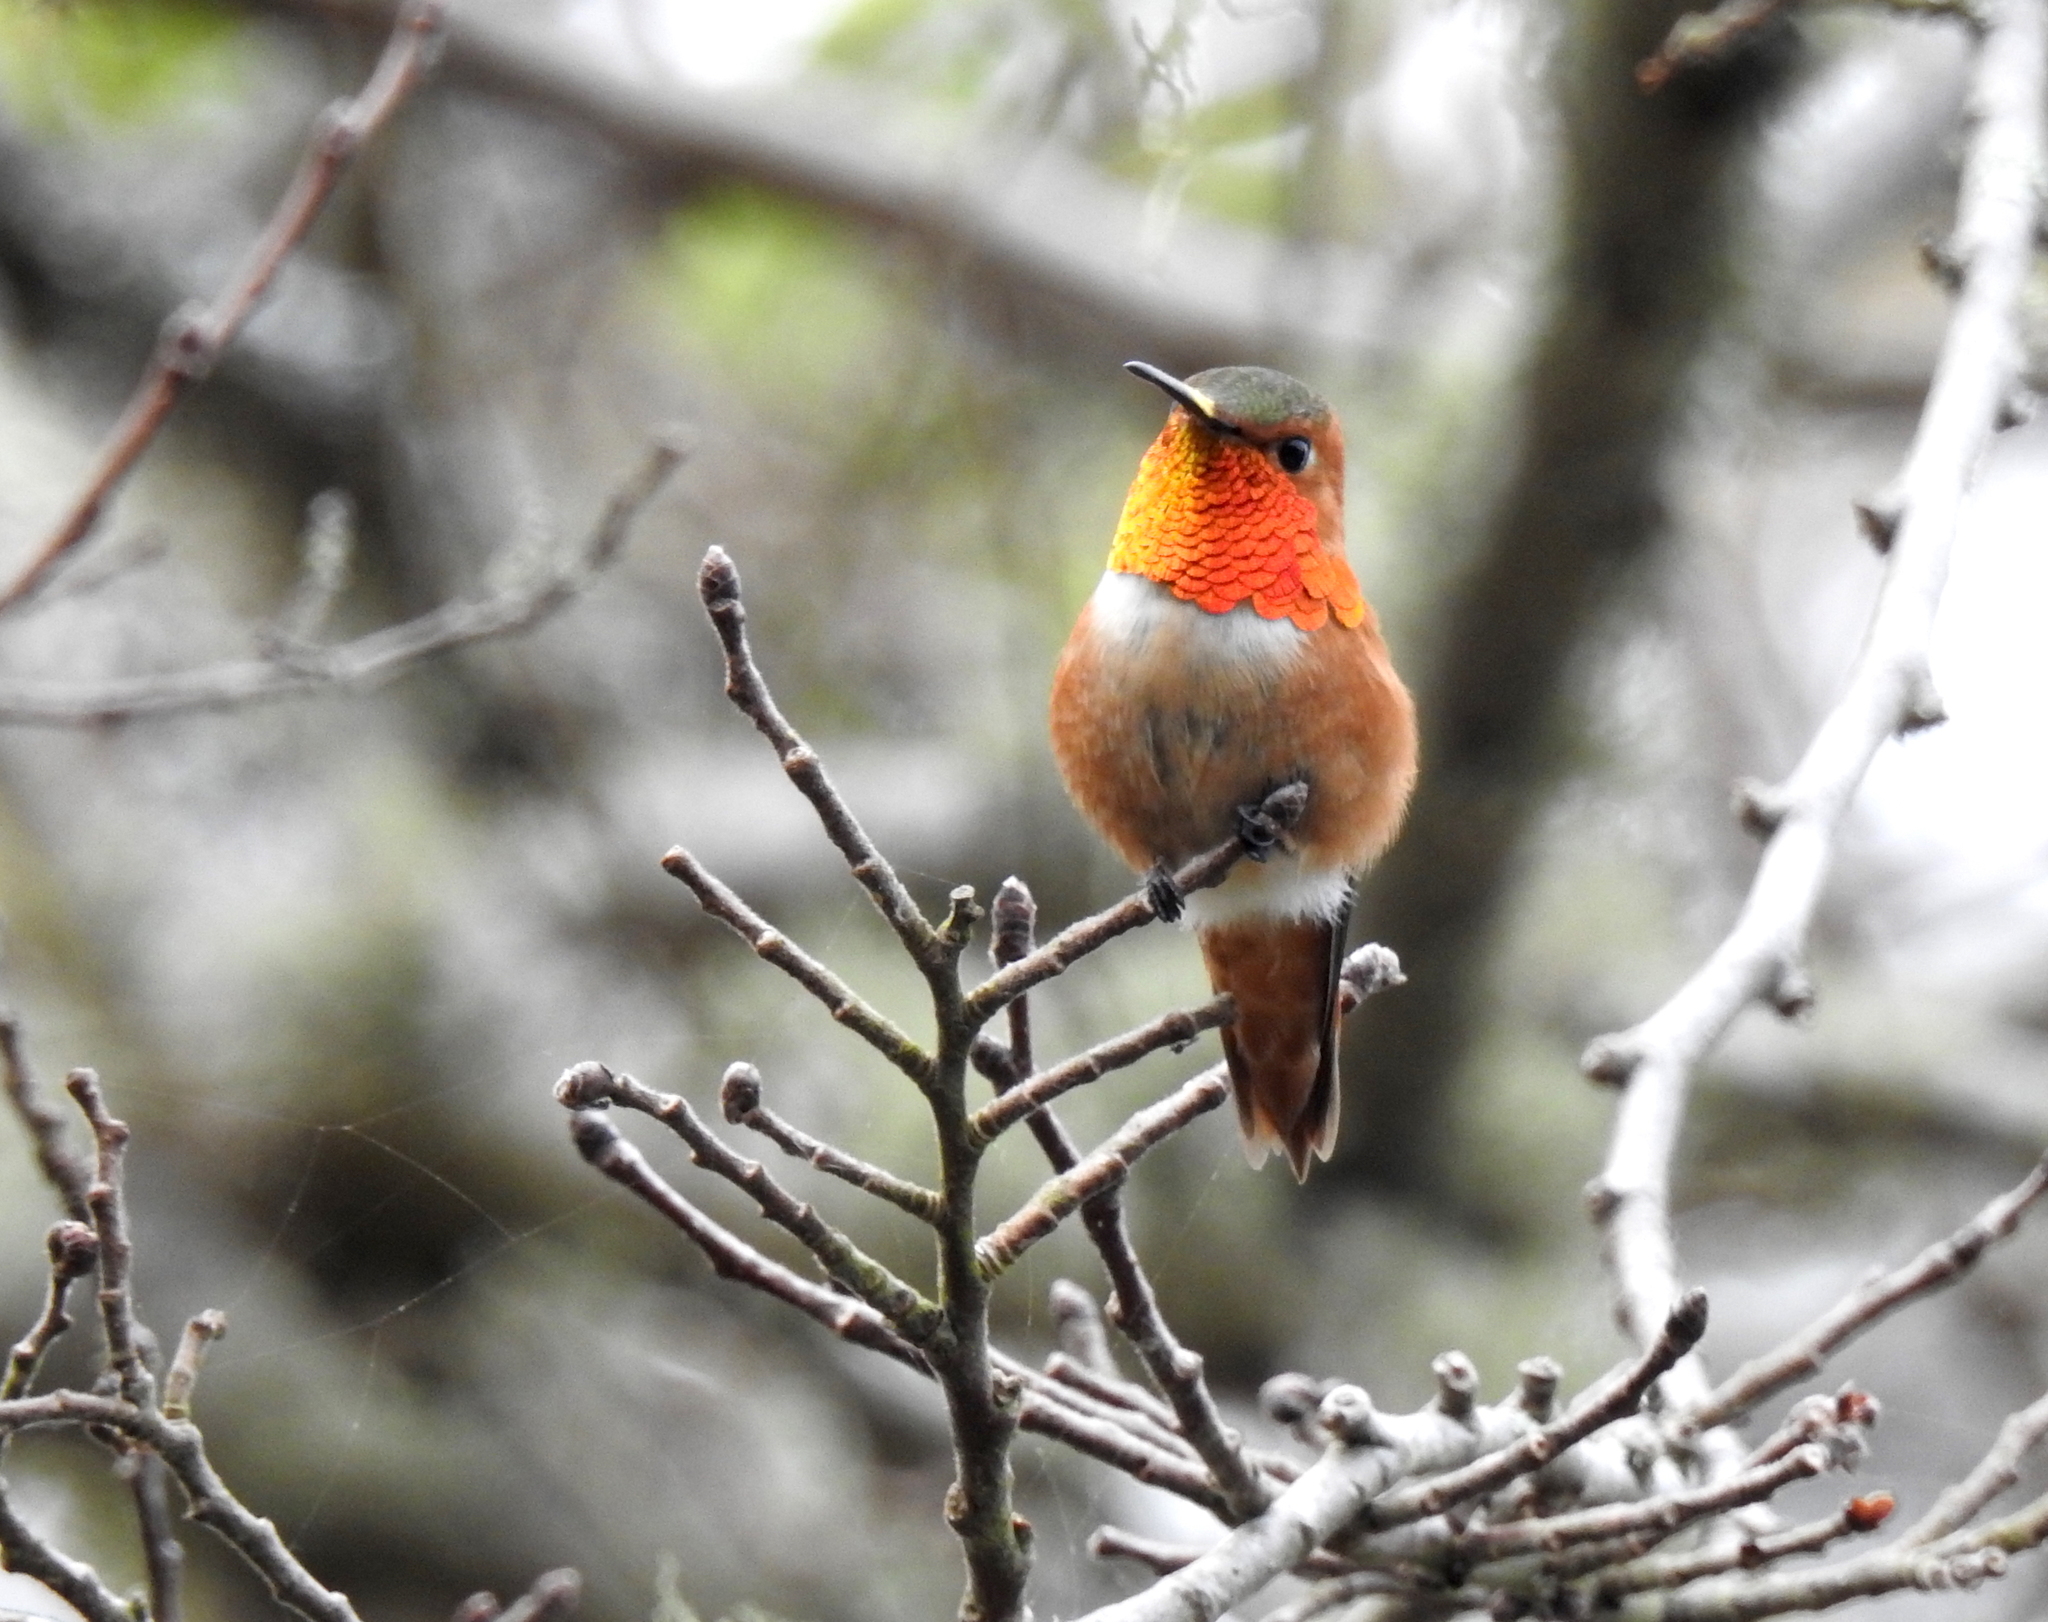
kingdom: Animalia
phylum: Chordata
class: Aves
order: Apodiformes
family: Trochilidae
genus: Selasphorus
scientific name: Selasphorus sasin
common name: Allen's hummingbird
